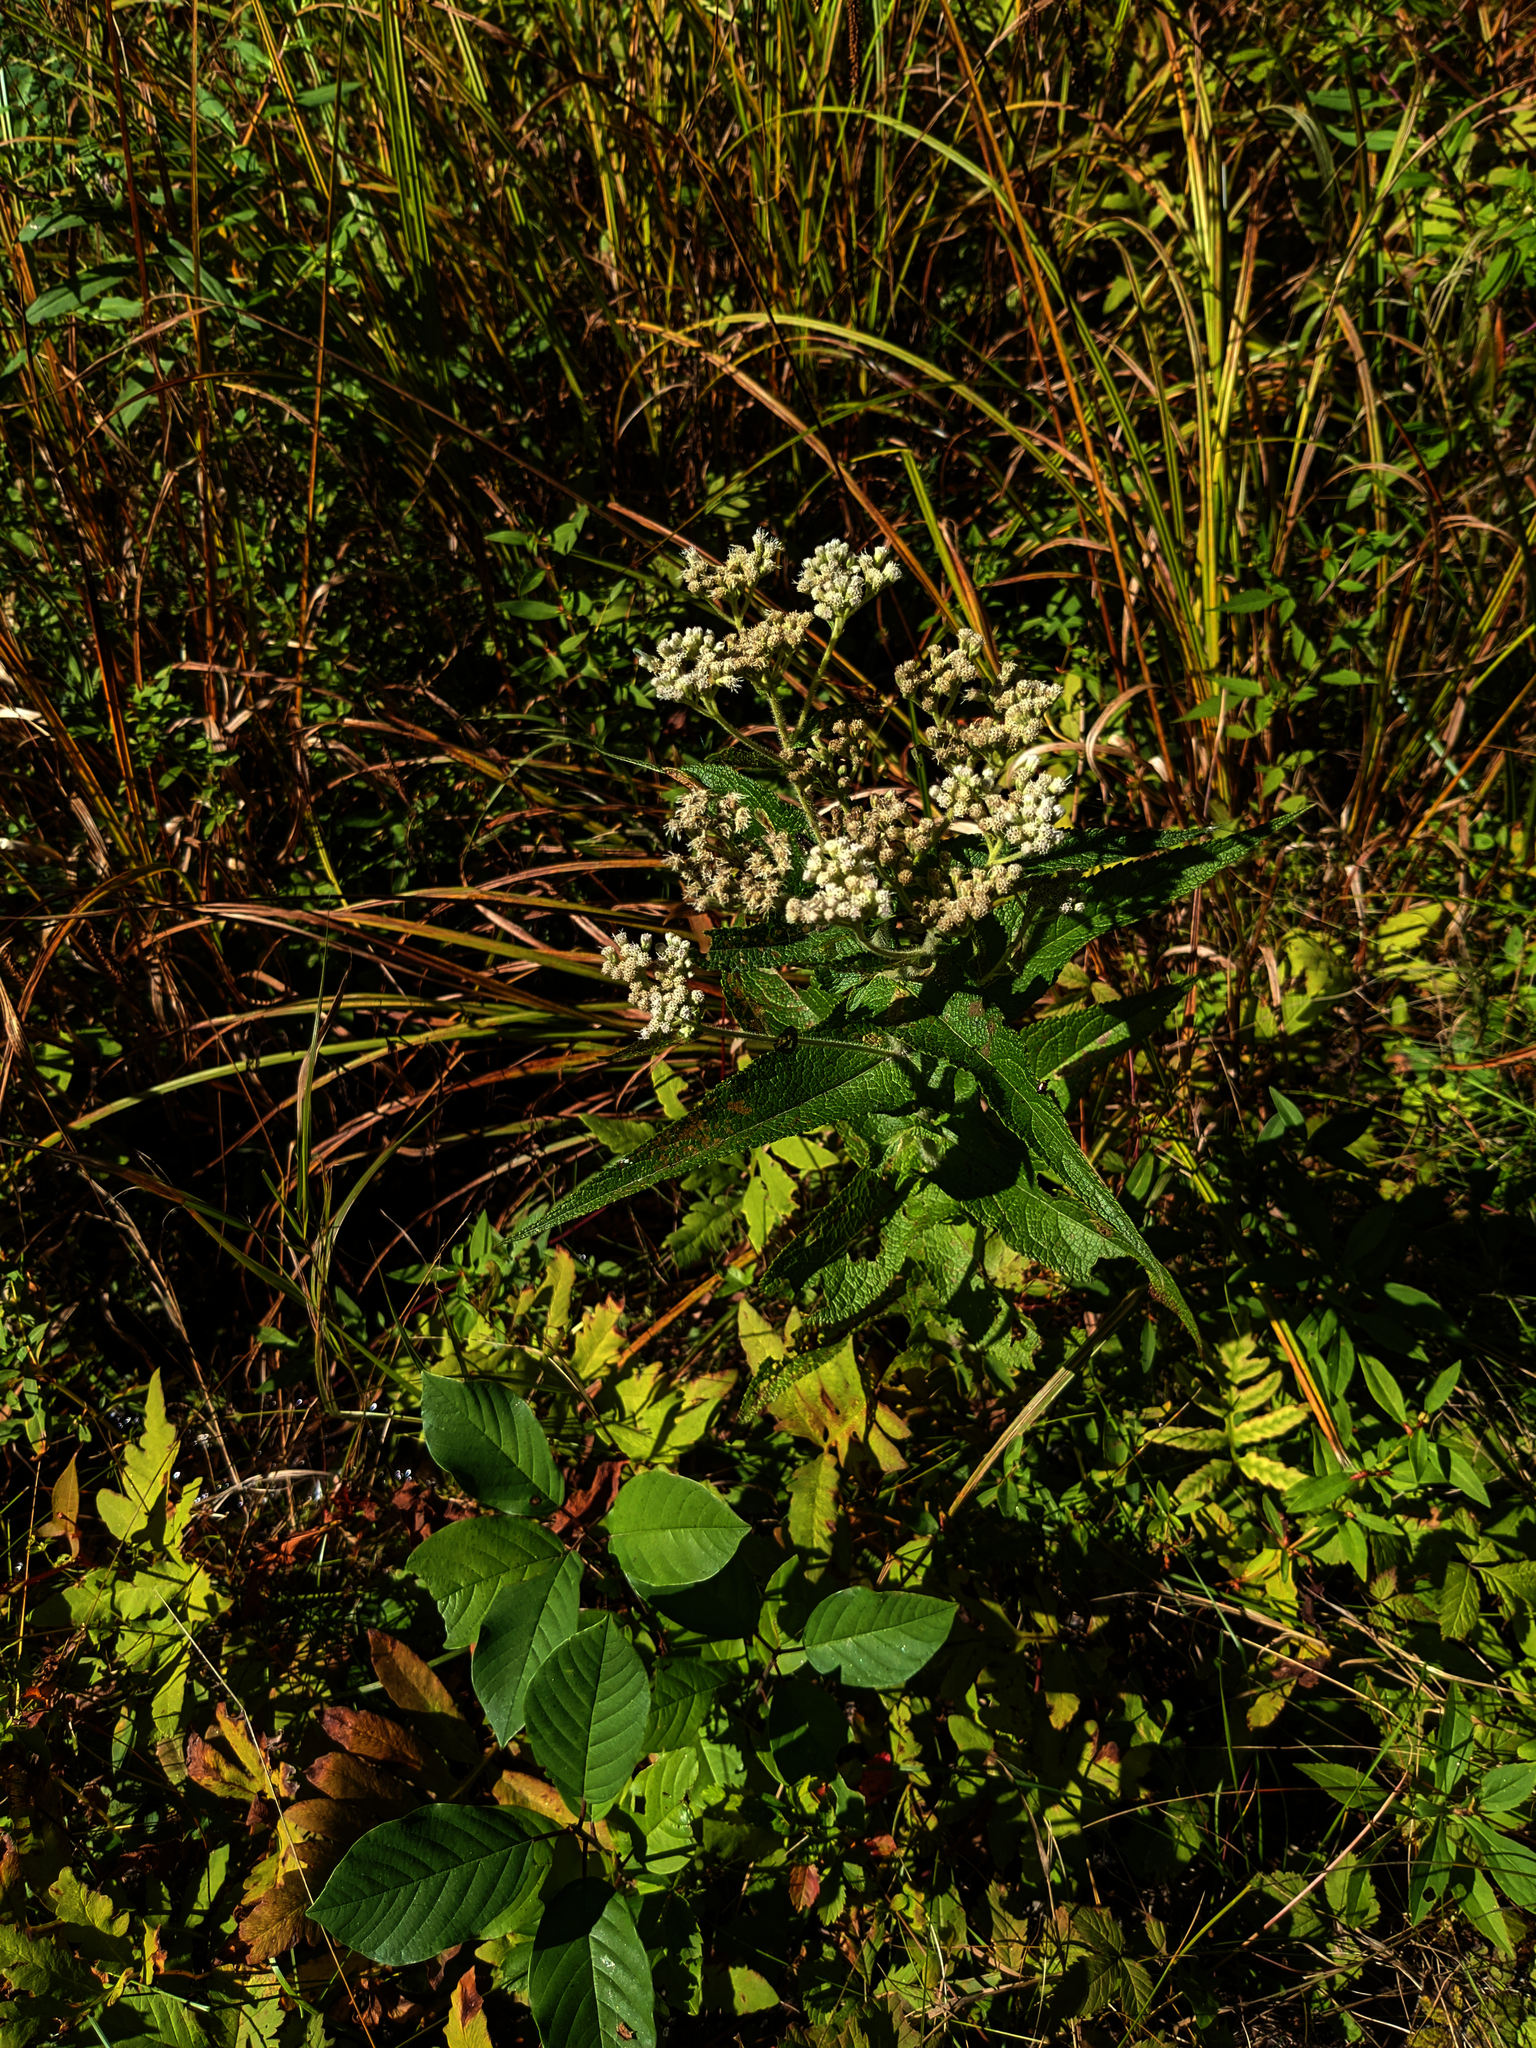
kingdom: Plantae
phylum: Tracheophyta
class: Magnoliopsida
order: Asterales
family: Asteraceae
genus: Eupatorium
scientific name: Eupatorium perfoliatum
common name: Boneset
